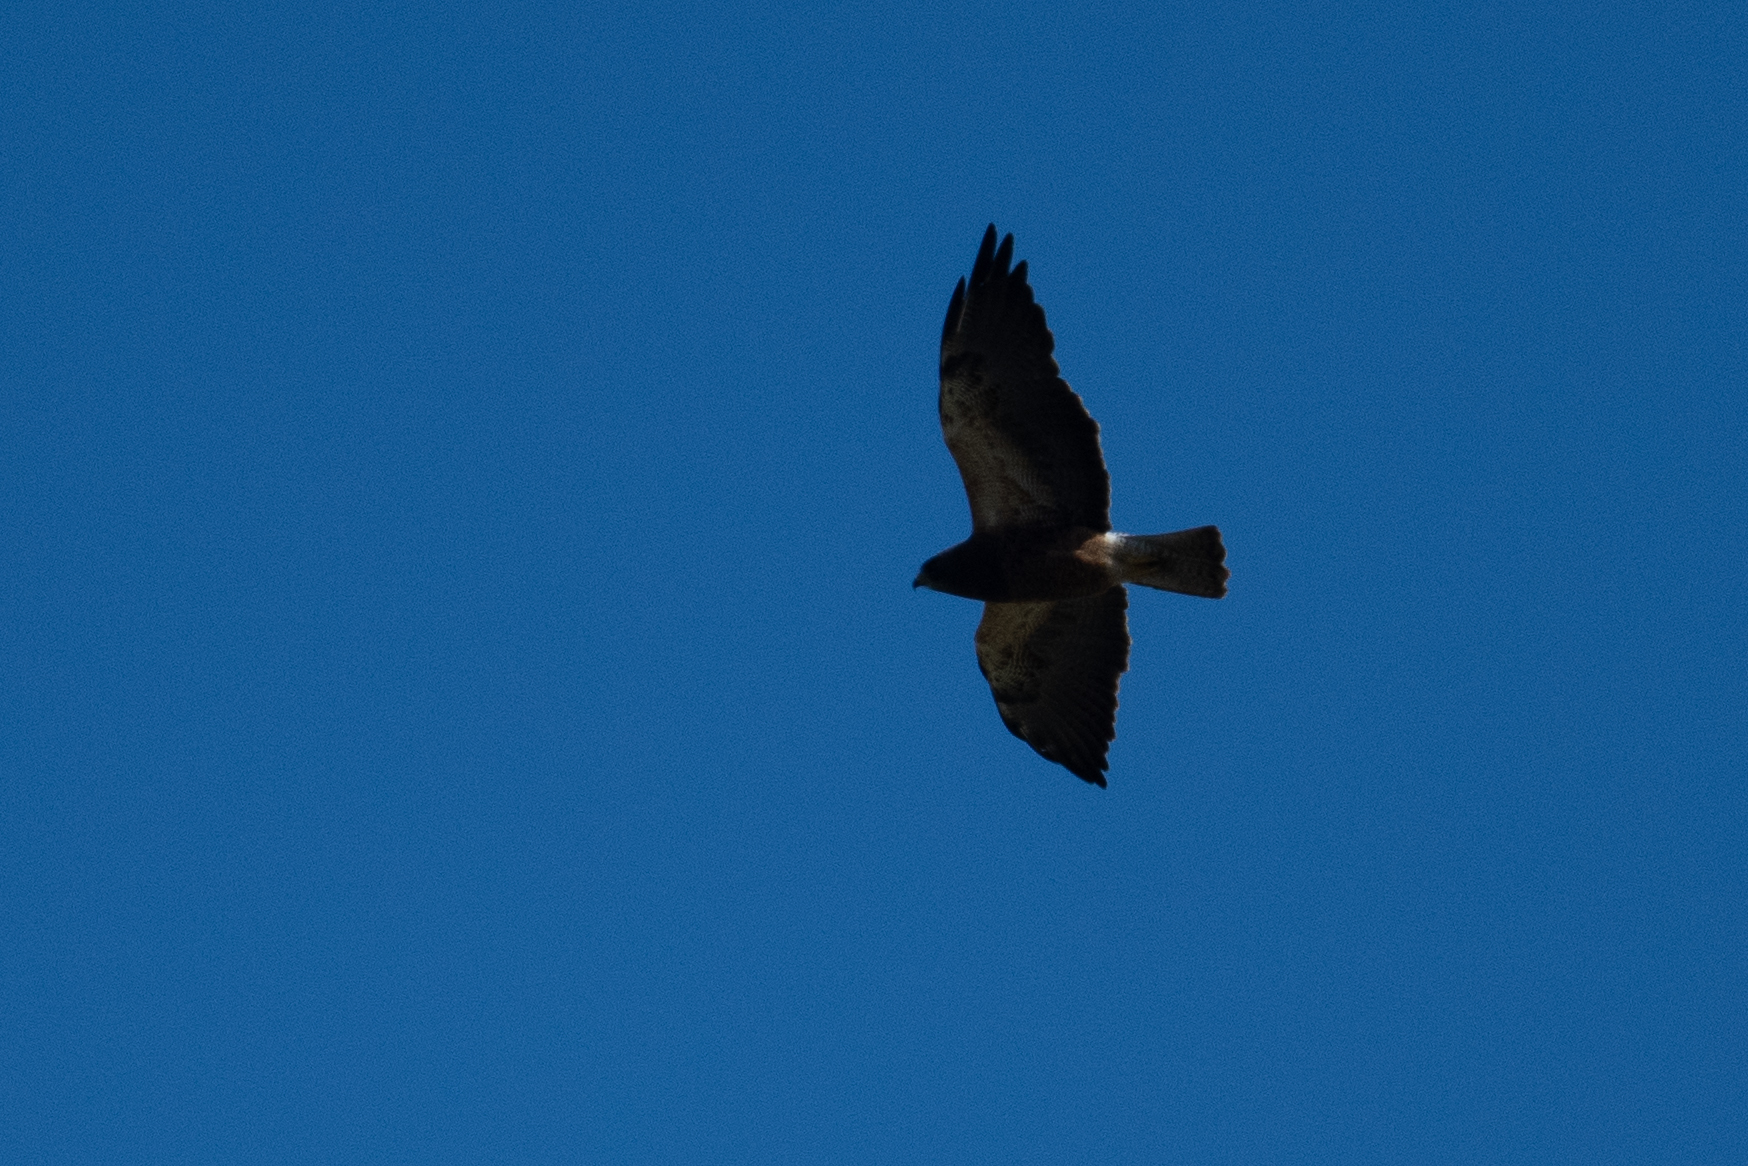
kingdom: Animalia
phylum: Chordata
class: Aves
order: Accipitriformes
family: Accipitridae
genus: Buteo
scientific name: Buteo swainsoni
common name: Swainson's hawk
